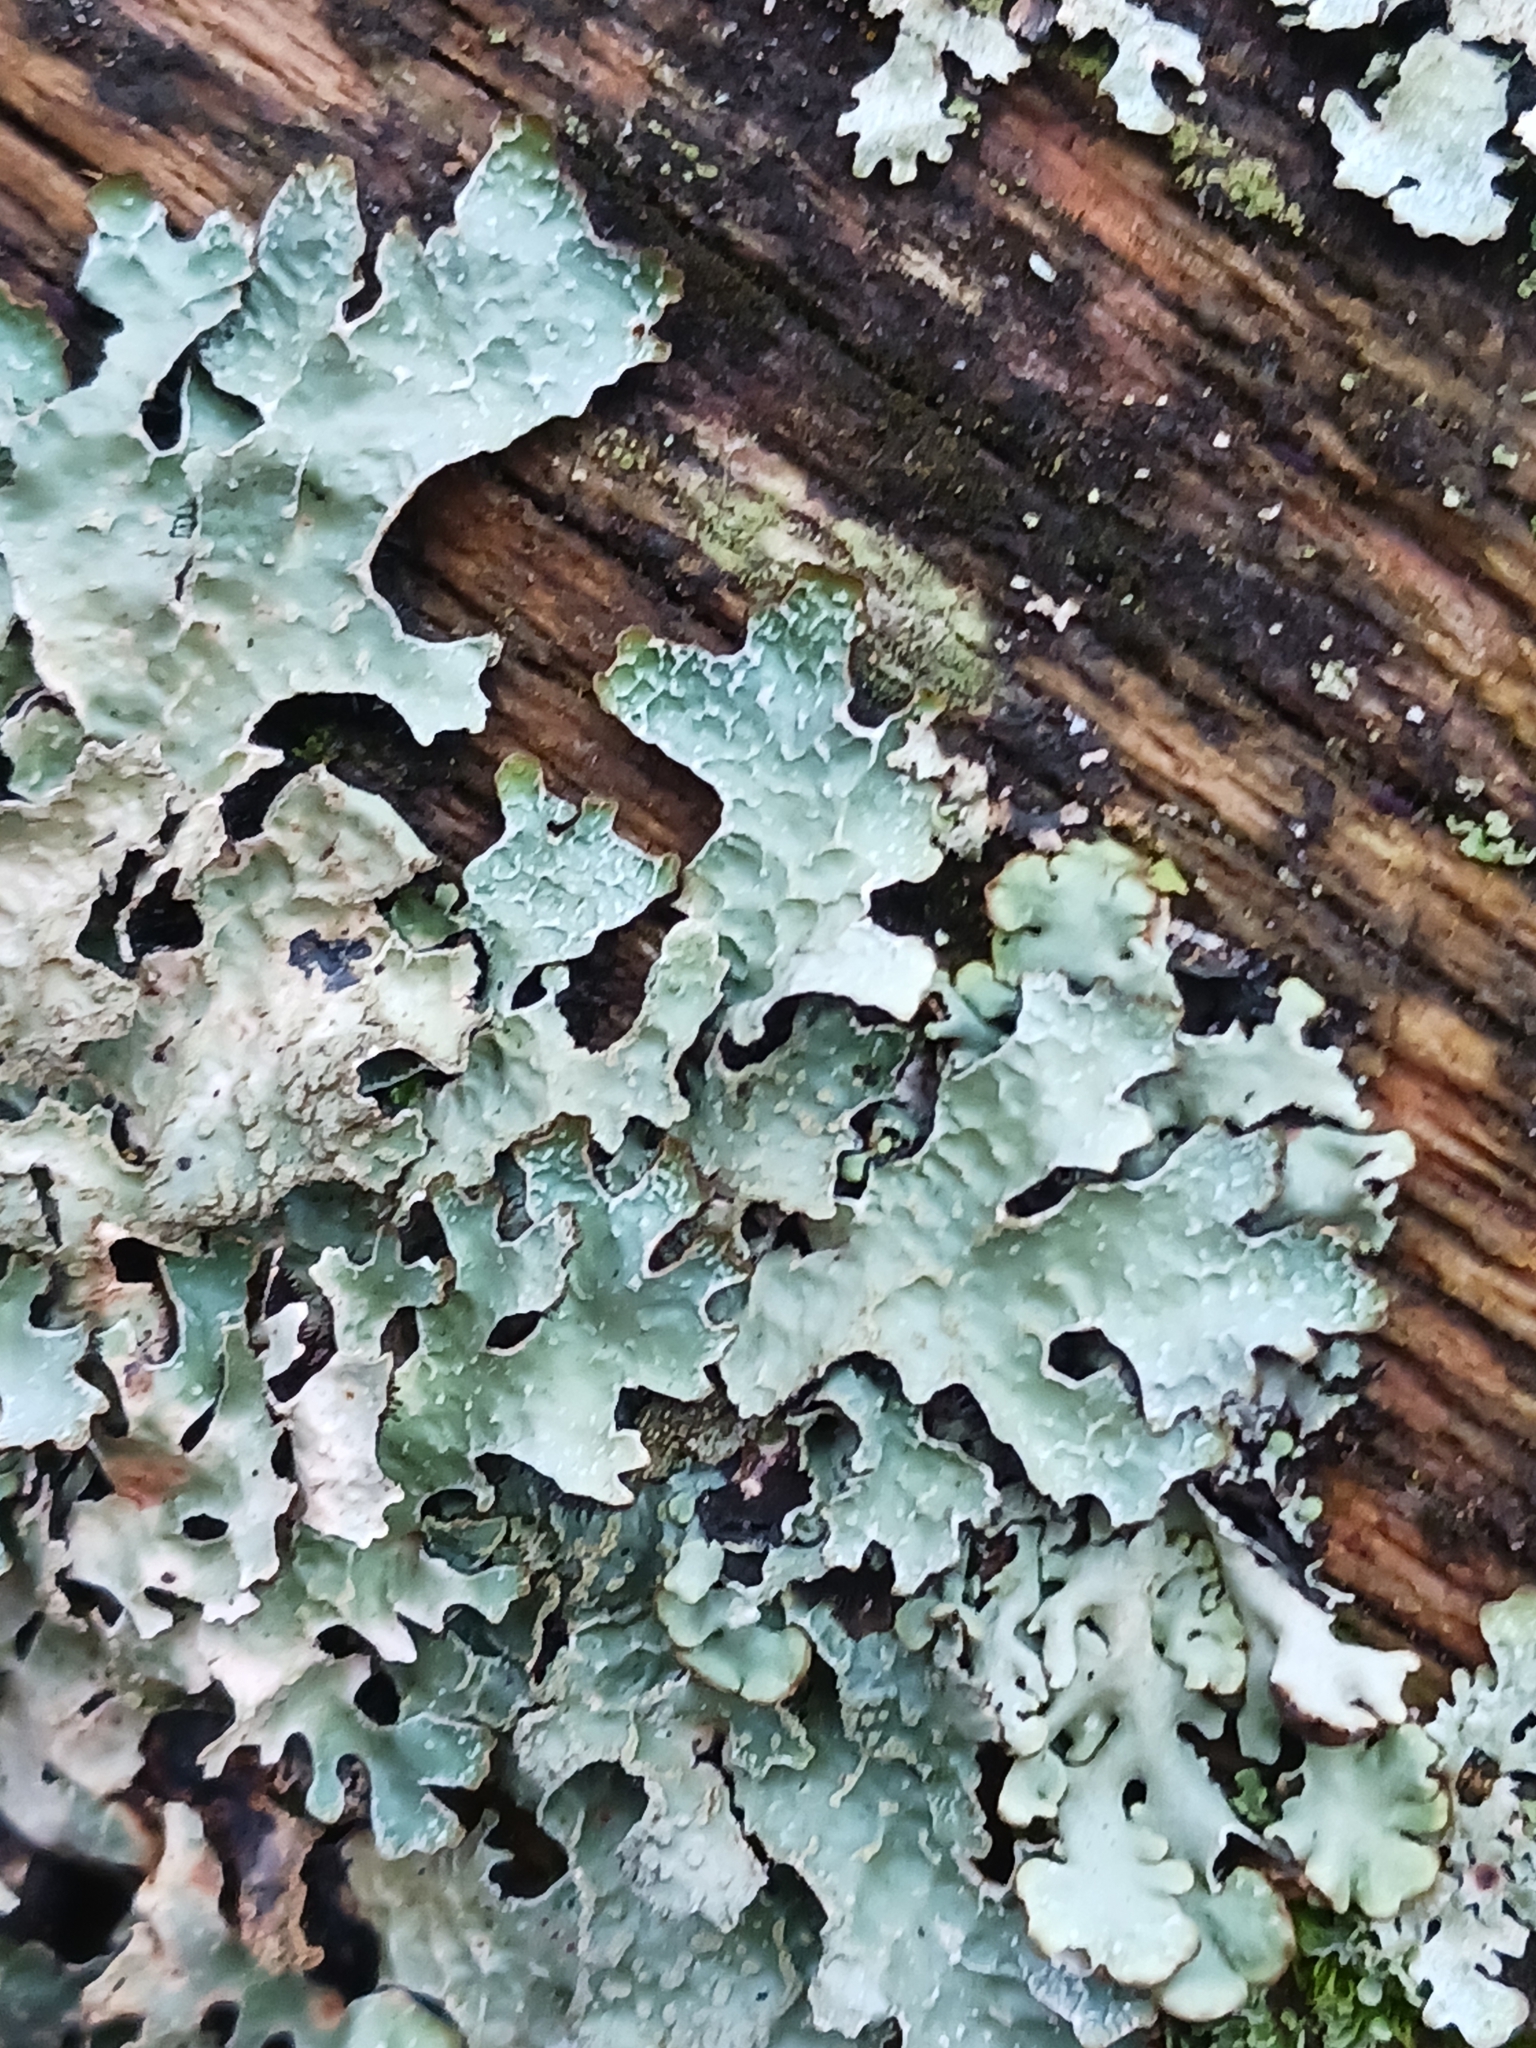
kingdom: Fungi
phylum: Ascomycota
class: Lecanoromycetes
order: Lecanorales
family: Parmeliaceae
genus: Parmelia
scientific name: Parmelia sulcata
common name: Netted shield lichen
